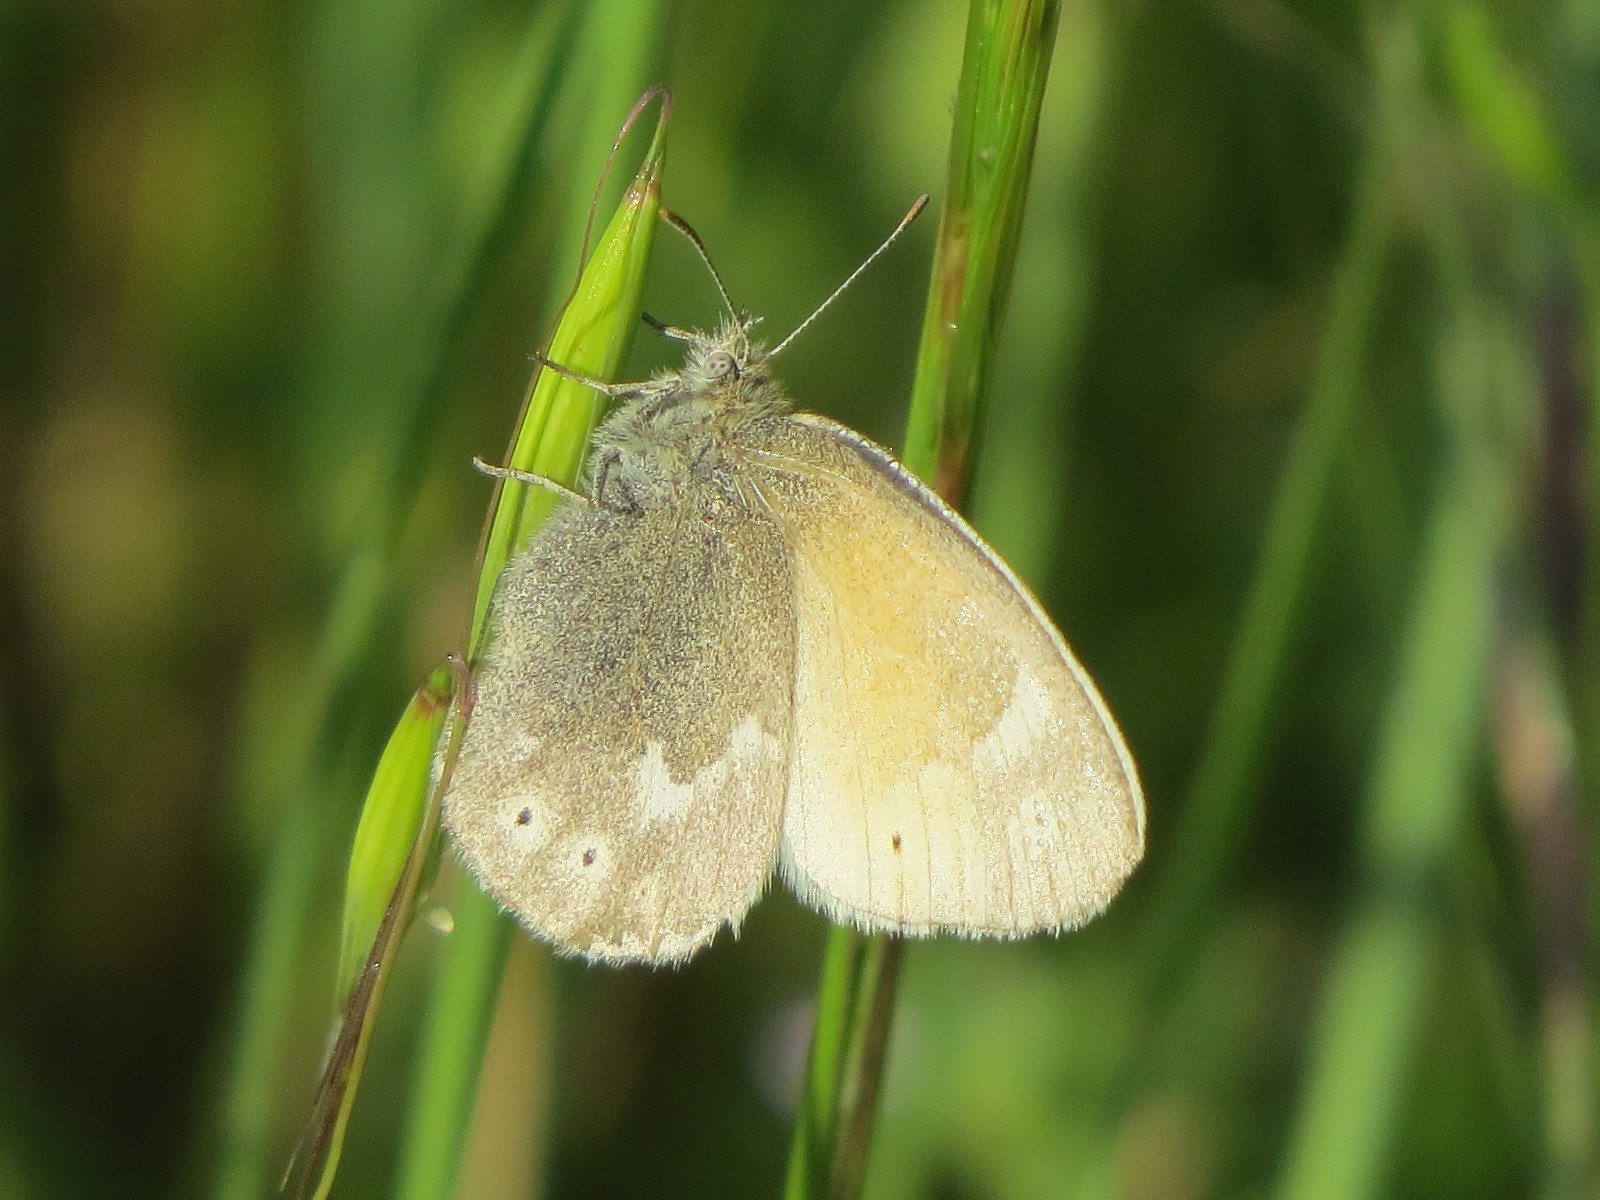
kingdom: Animalia
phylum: Arthropoda
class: Insecta
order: Lepidoptera
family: Nymphalidae
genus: Coenonympha
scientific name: Coenonympha california
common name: Common ringlet
